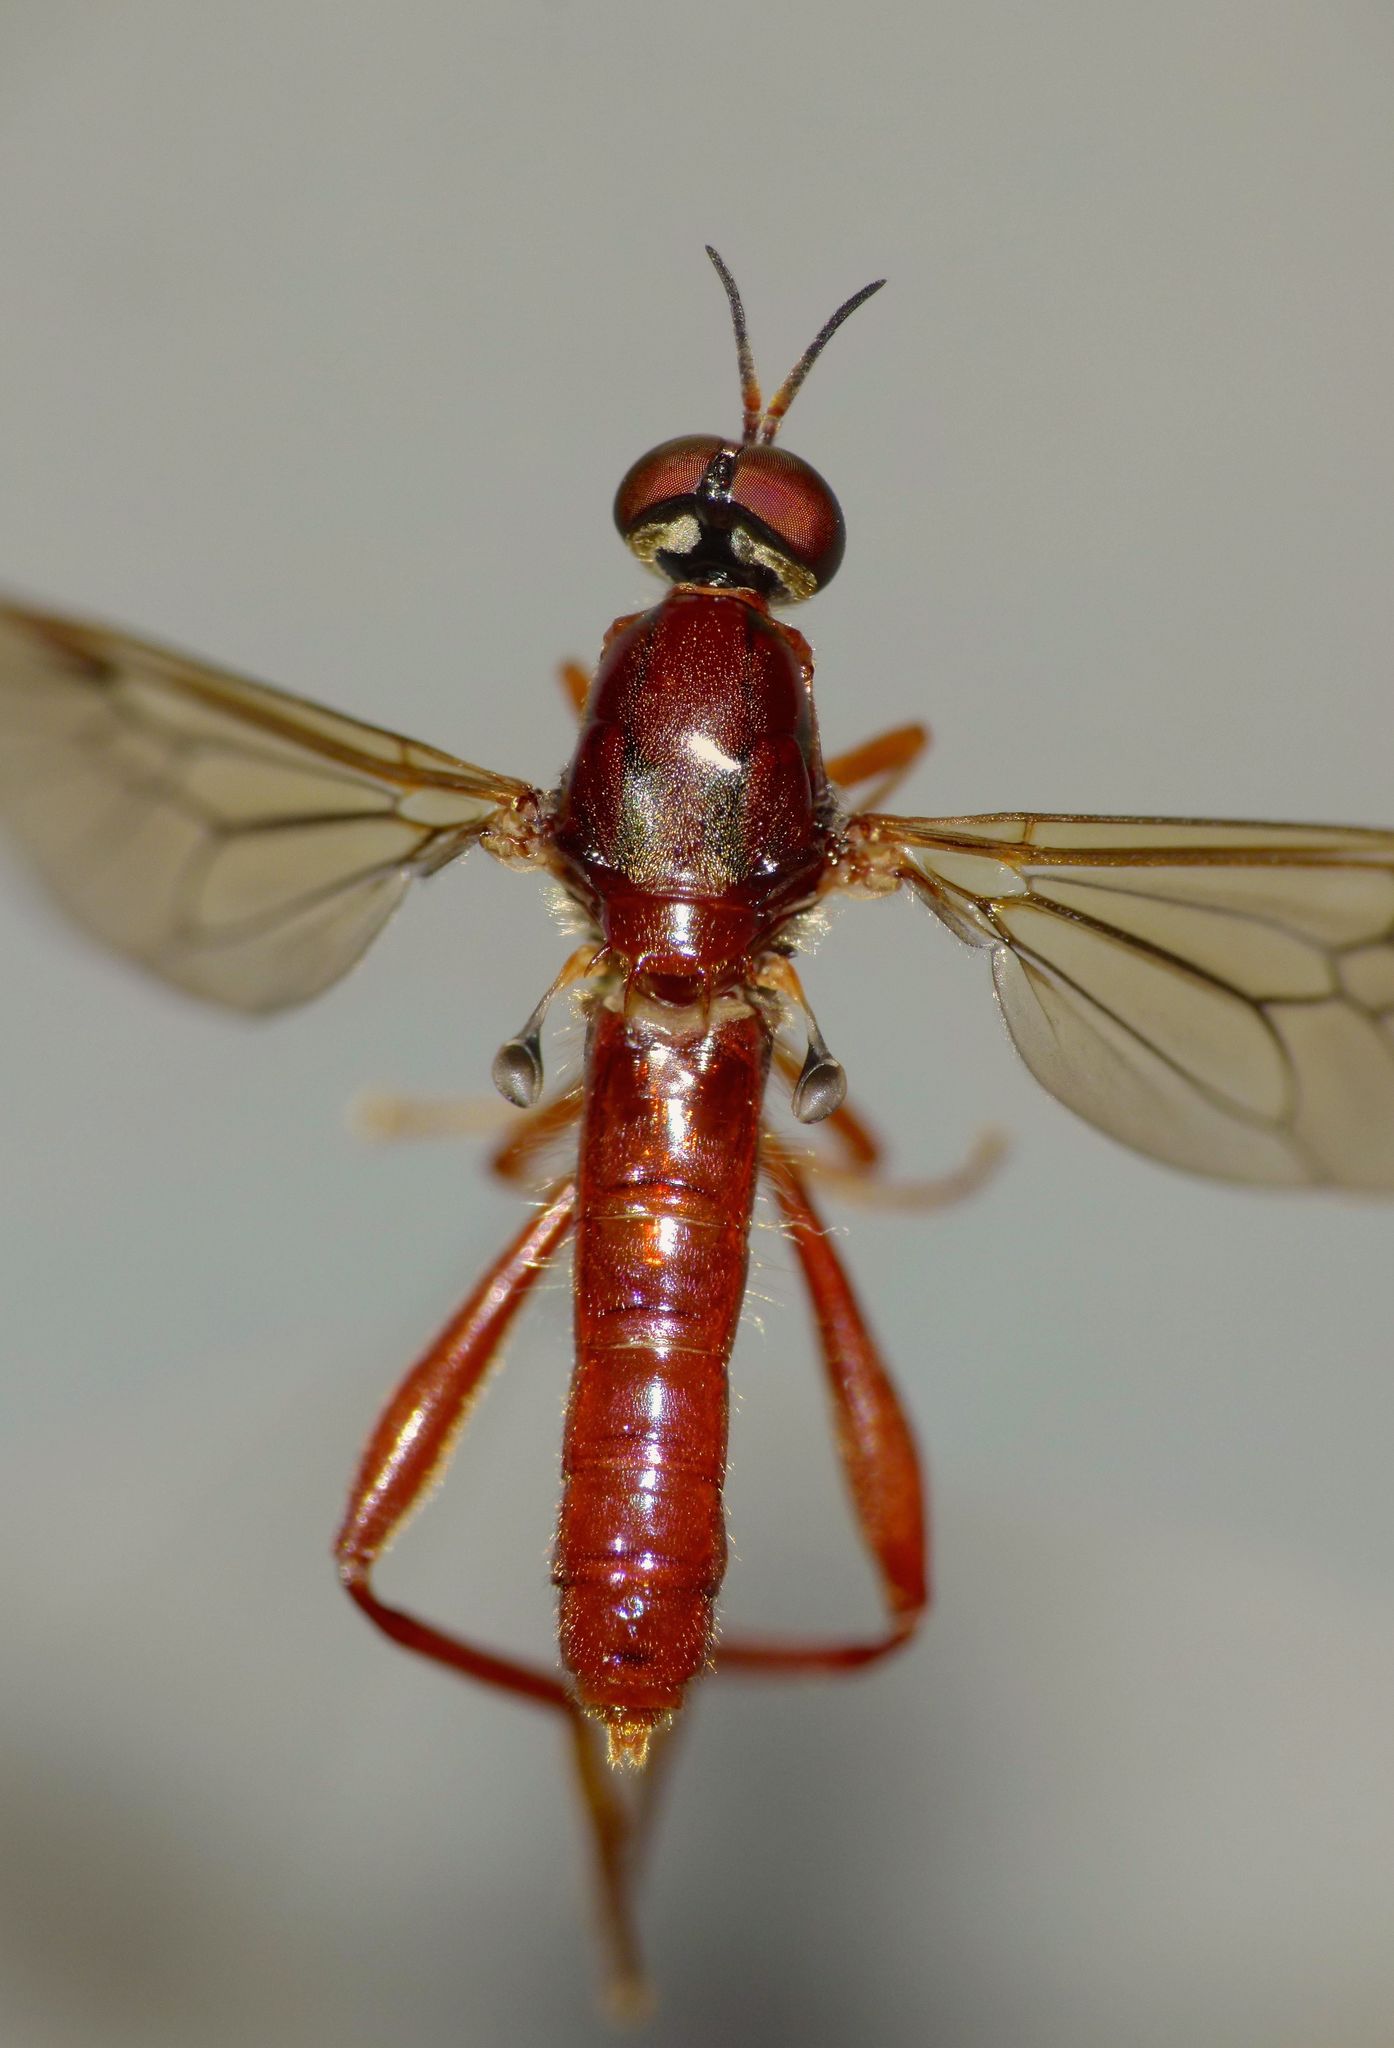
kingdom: Animalia
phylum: Arthropoda
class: Insecta
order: Diptera
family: Stratiomyidae
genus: Benhamyia
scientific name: Benhamyia straznitzkii
